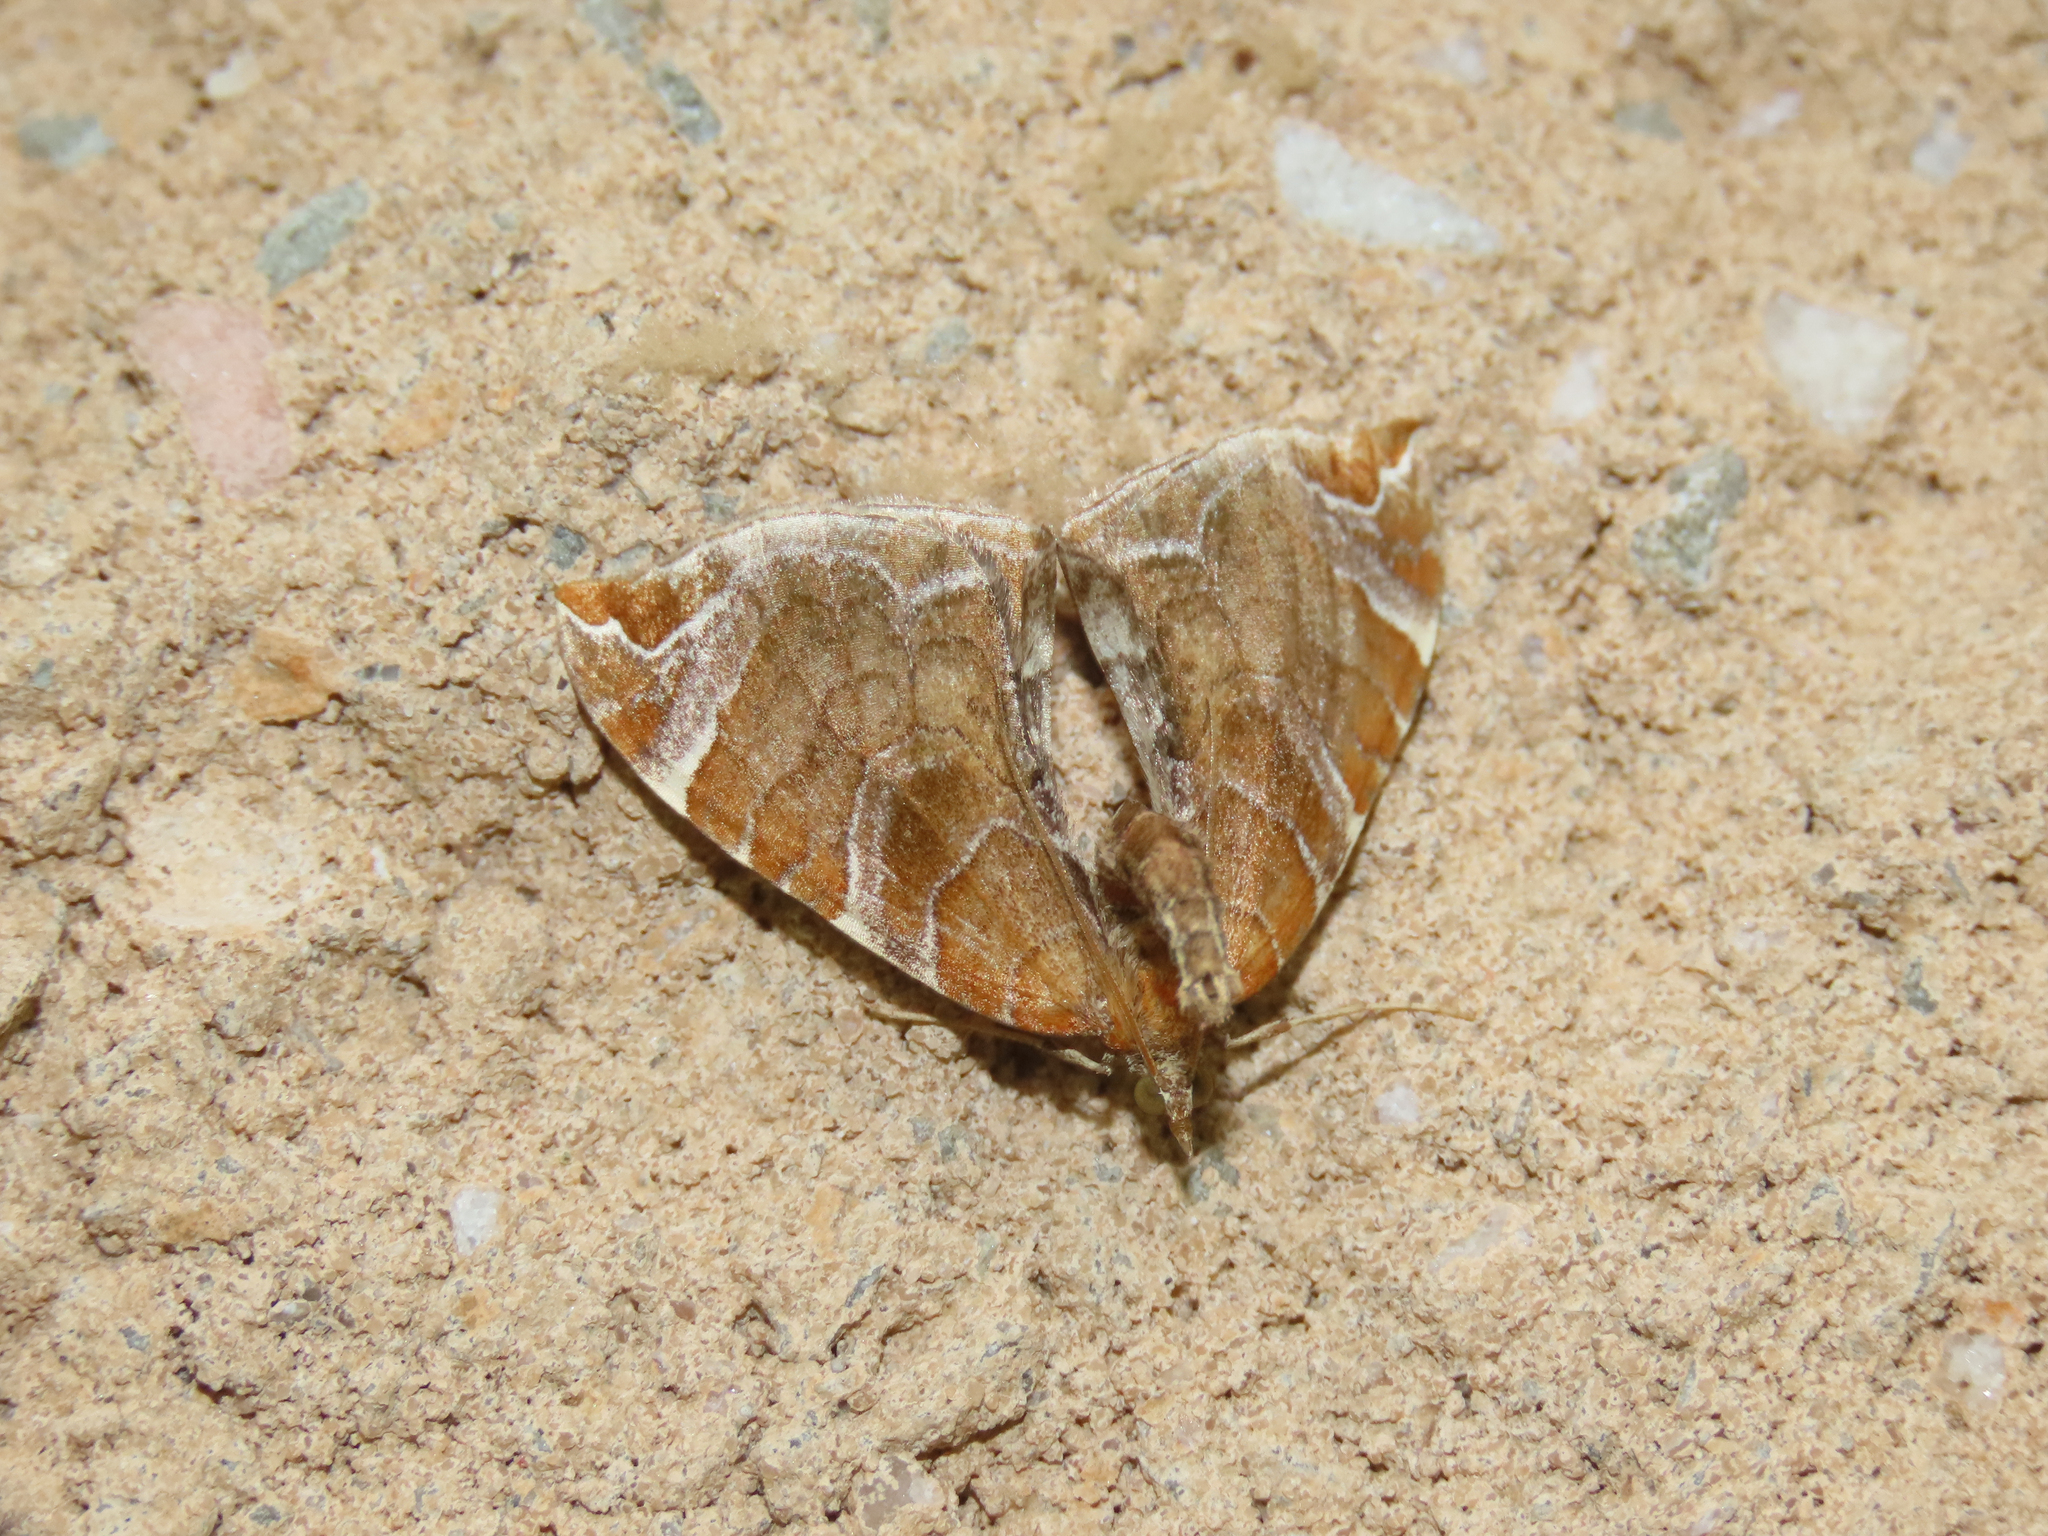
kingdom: Animalia
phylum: Arthropoda
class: Insecta
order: Lepidoptera
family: Geometridae
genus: Eulithis
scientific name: Eulithis molliculata
